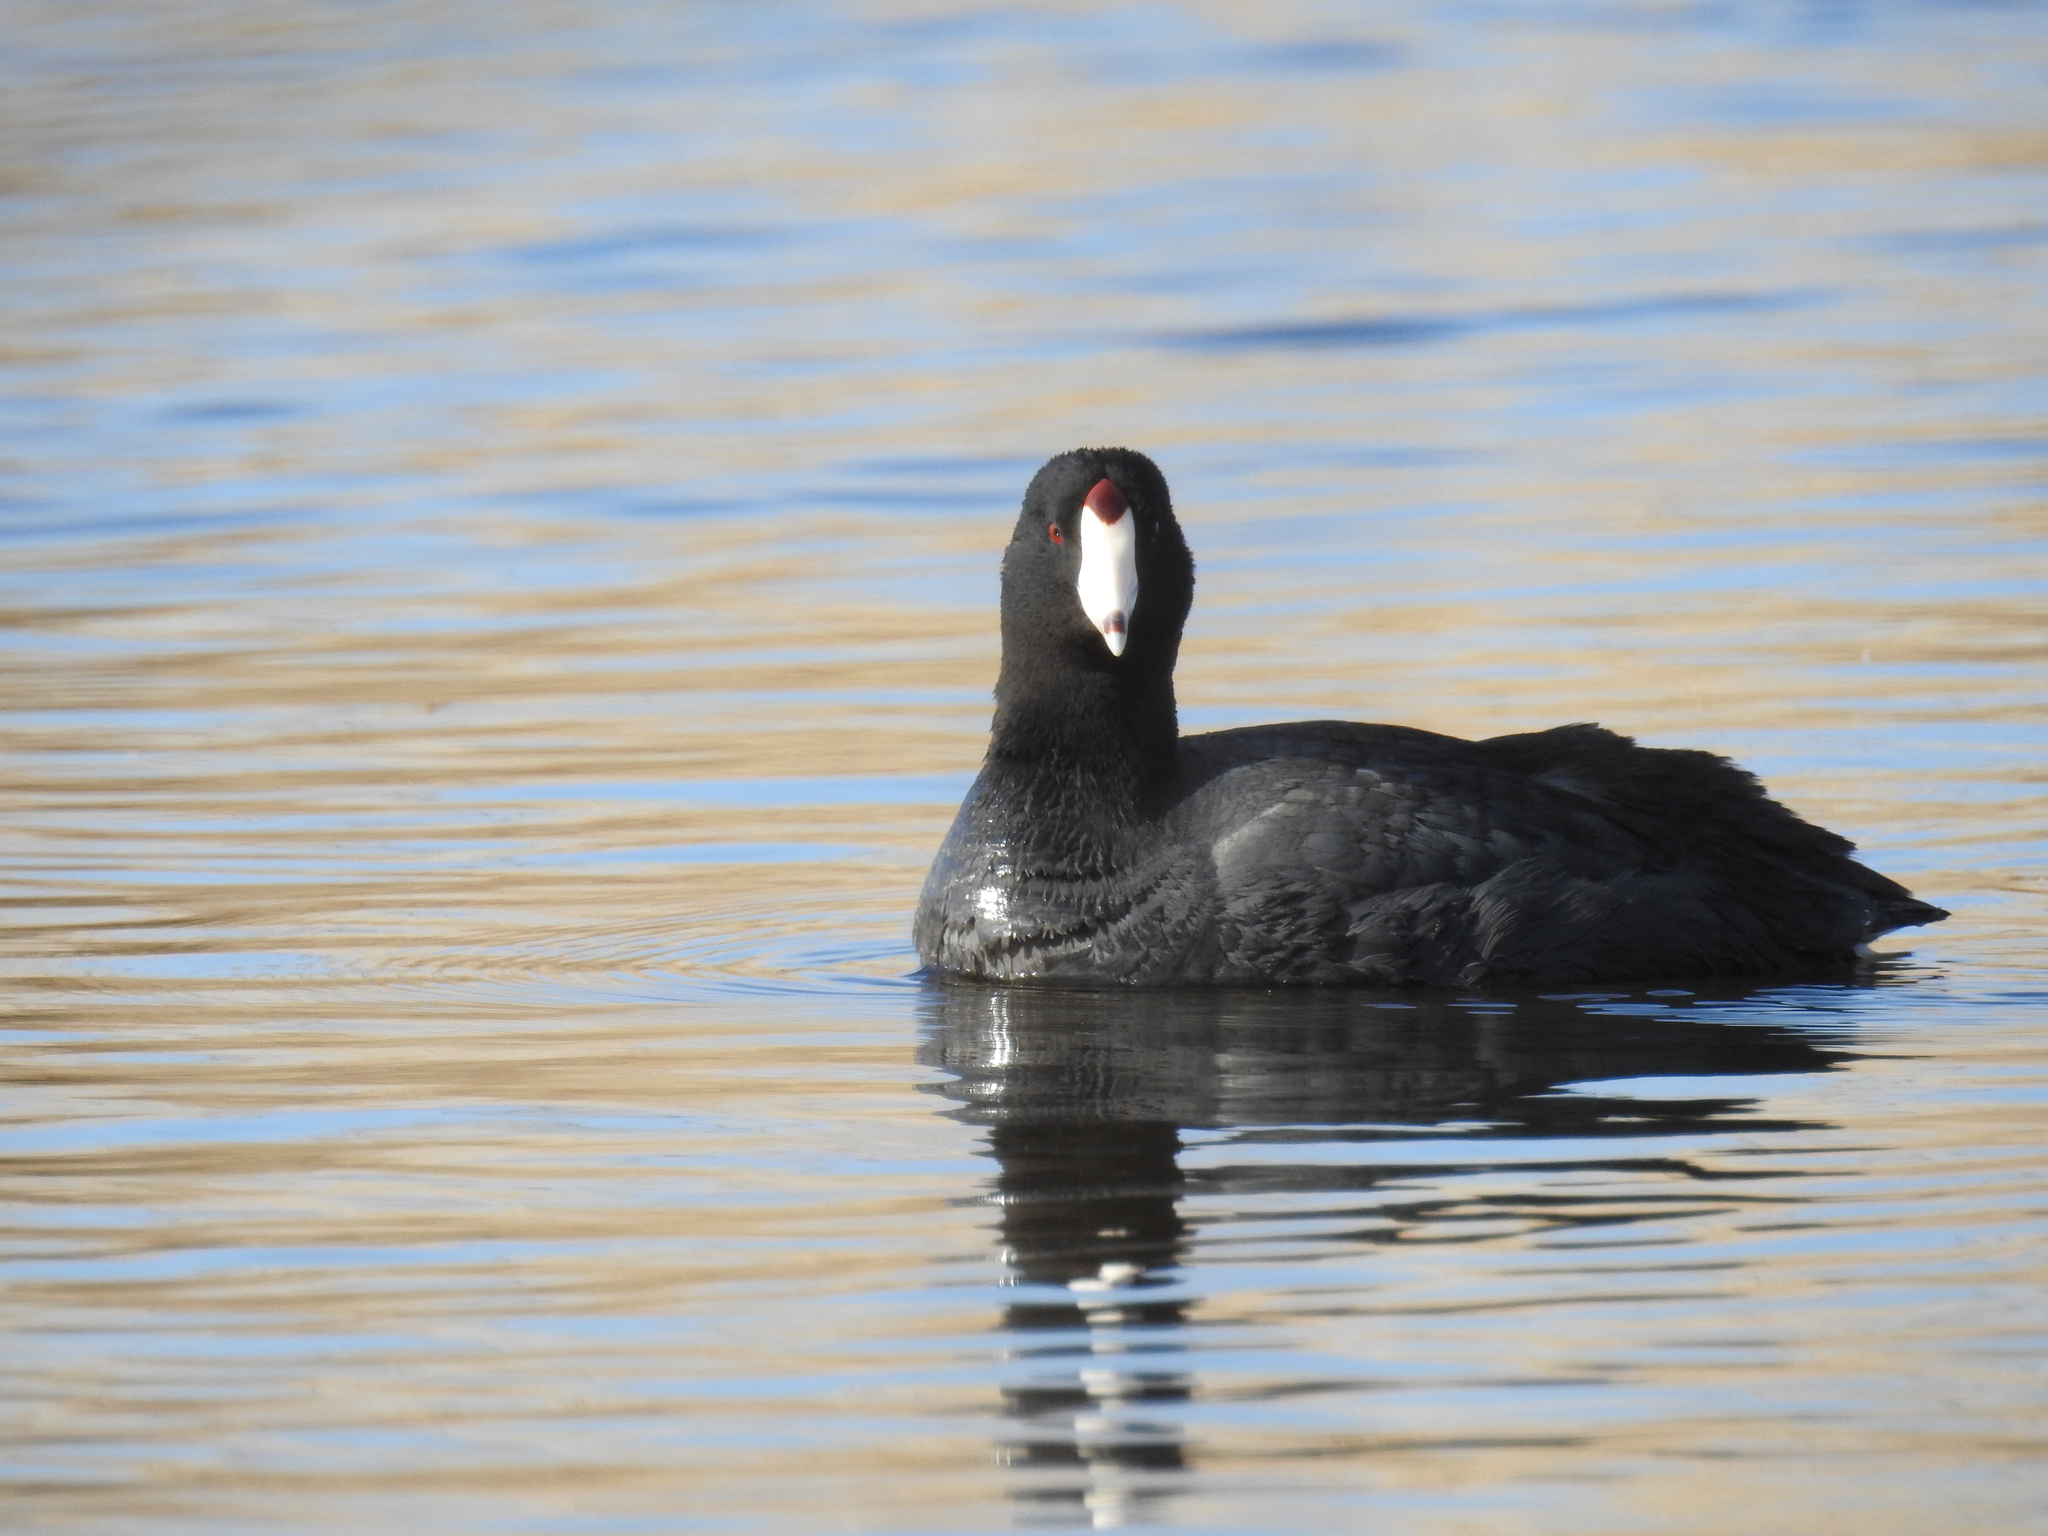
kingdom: Animalia
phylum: Chordata
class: Aves
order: Gruiformes
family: Rallidae
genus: Fulica
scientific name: Fulica americana
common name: American coot
